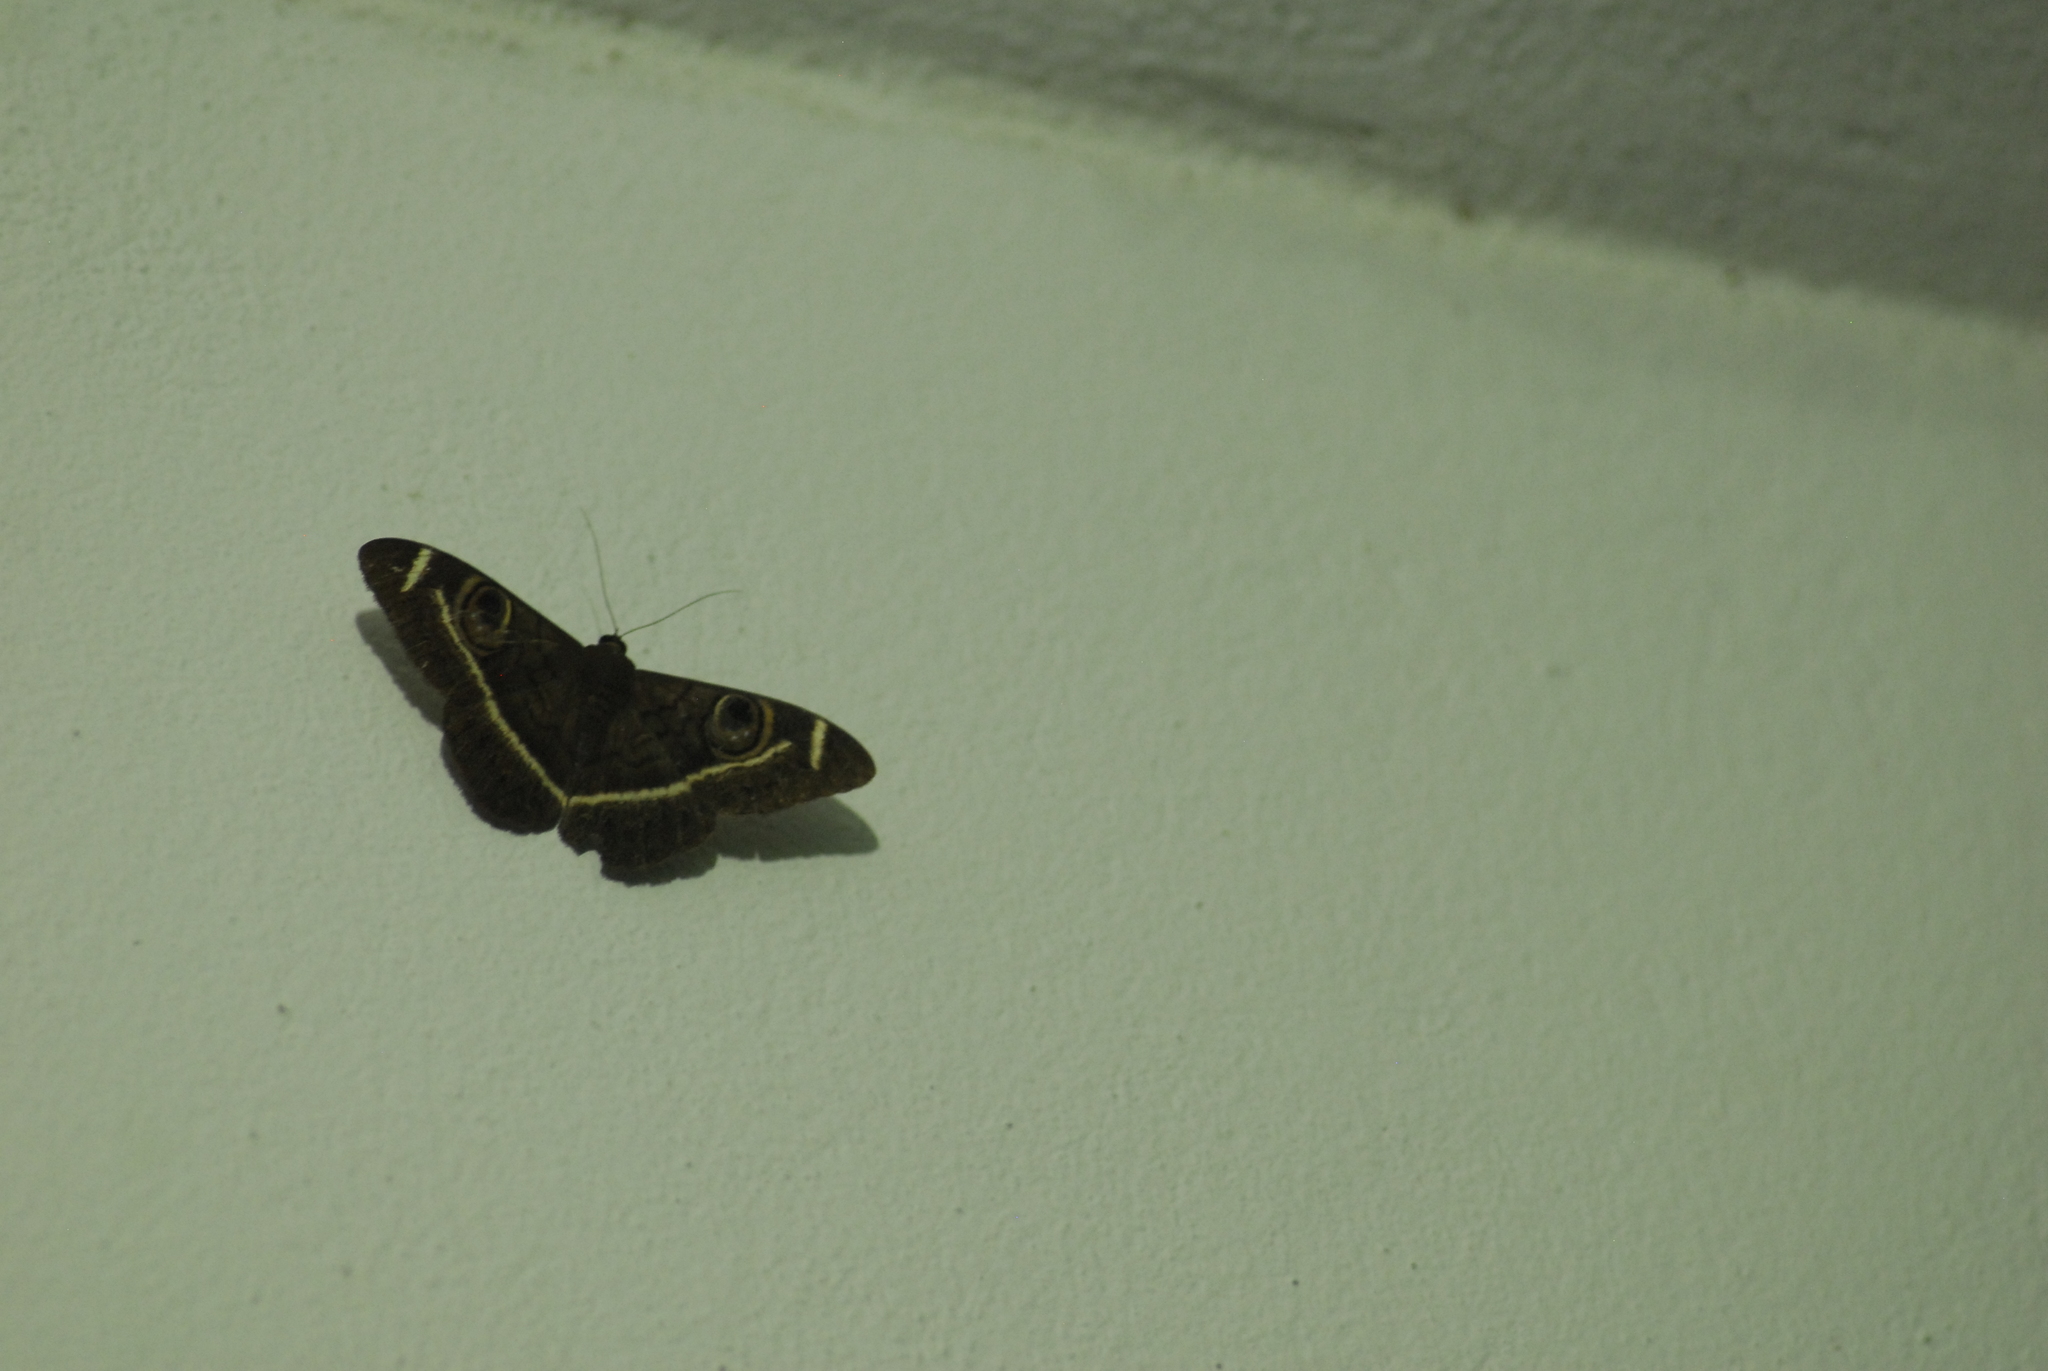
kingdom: Animalia
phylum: Arthropoda
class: Insecta
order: Lepidoptera
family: Erebidae
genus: Cyligramma
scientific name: Cyligramma latona
